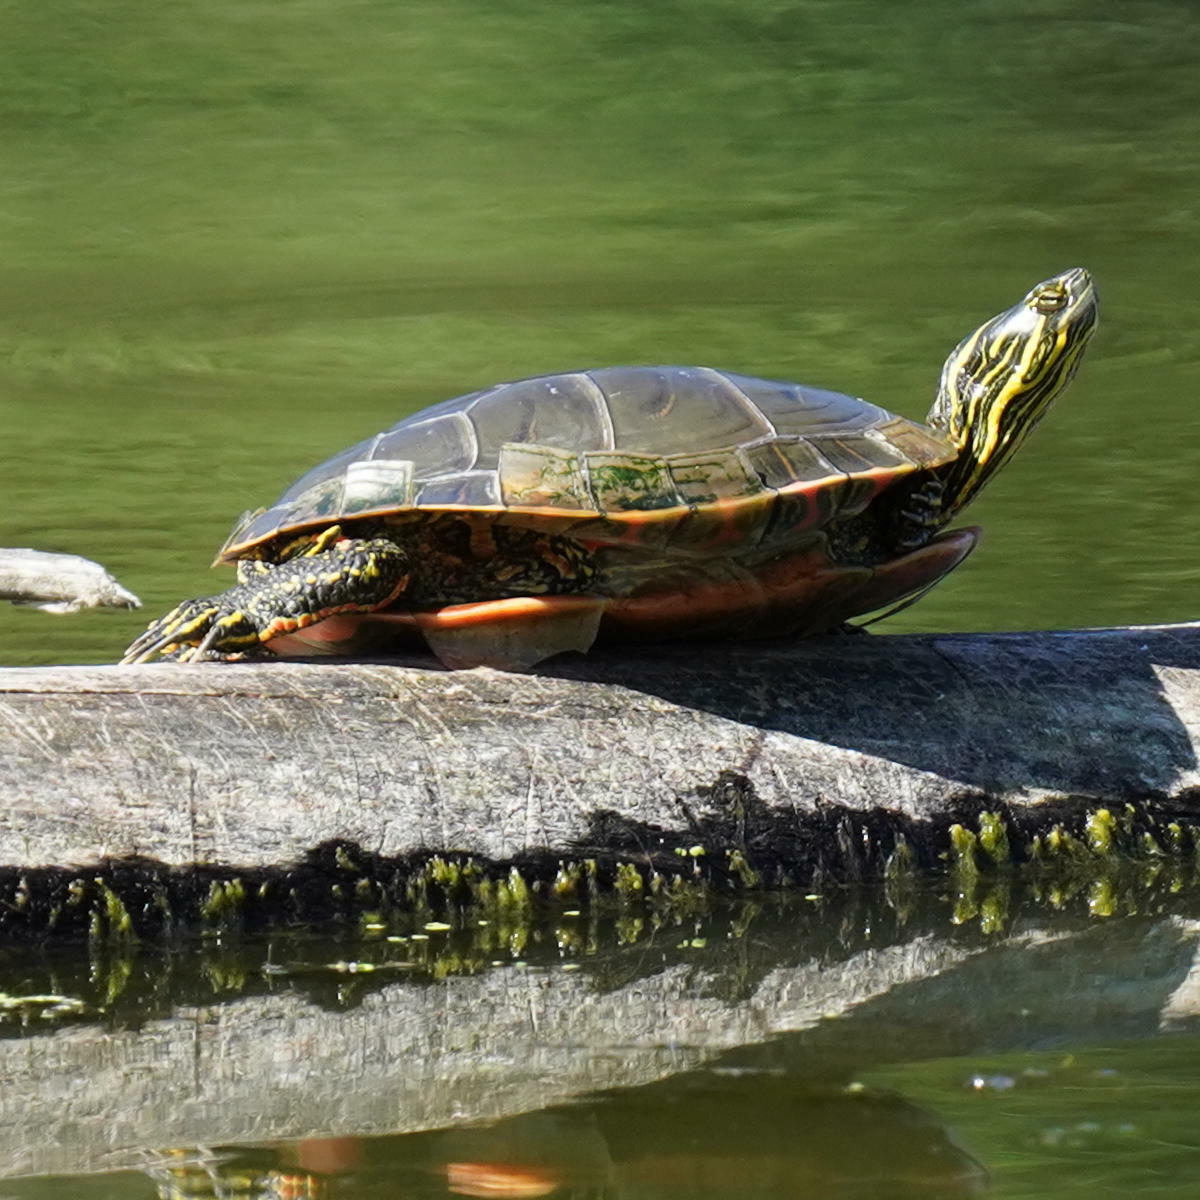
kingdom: Animalia
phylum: Chordata
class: Testudines
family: Emydidae
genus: Chrysemys
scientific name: Chrysemys picta
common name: Painted turtle
